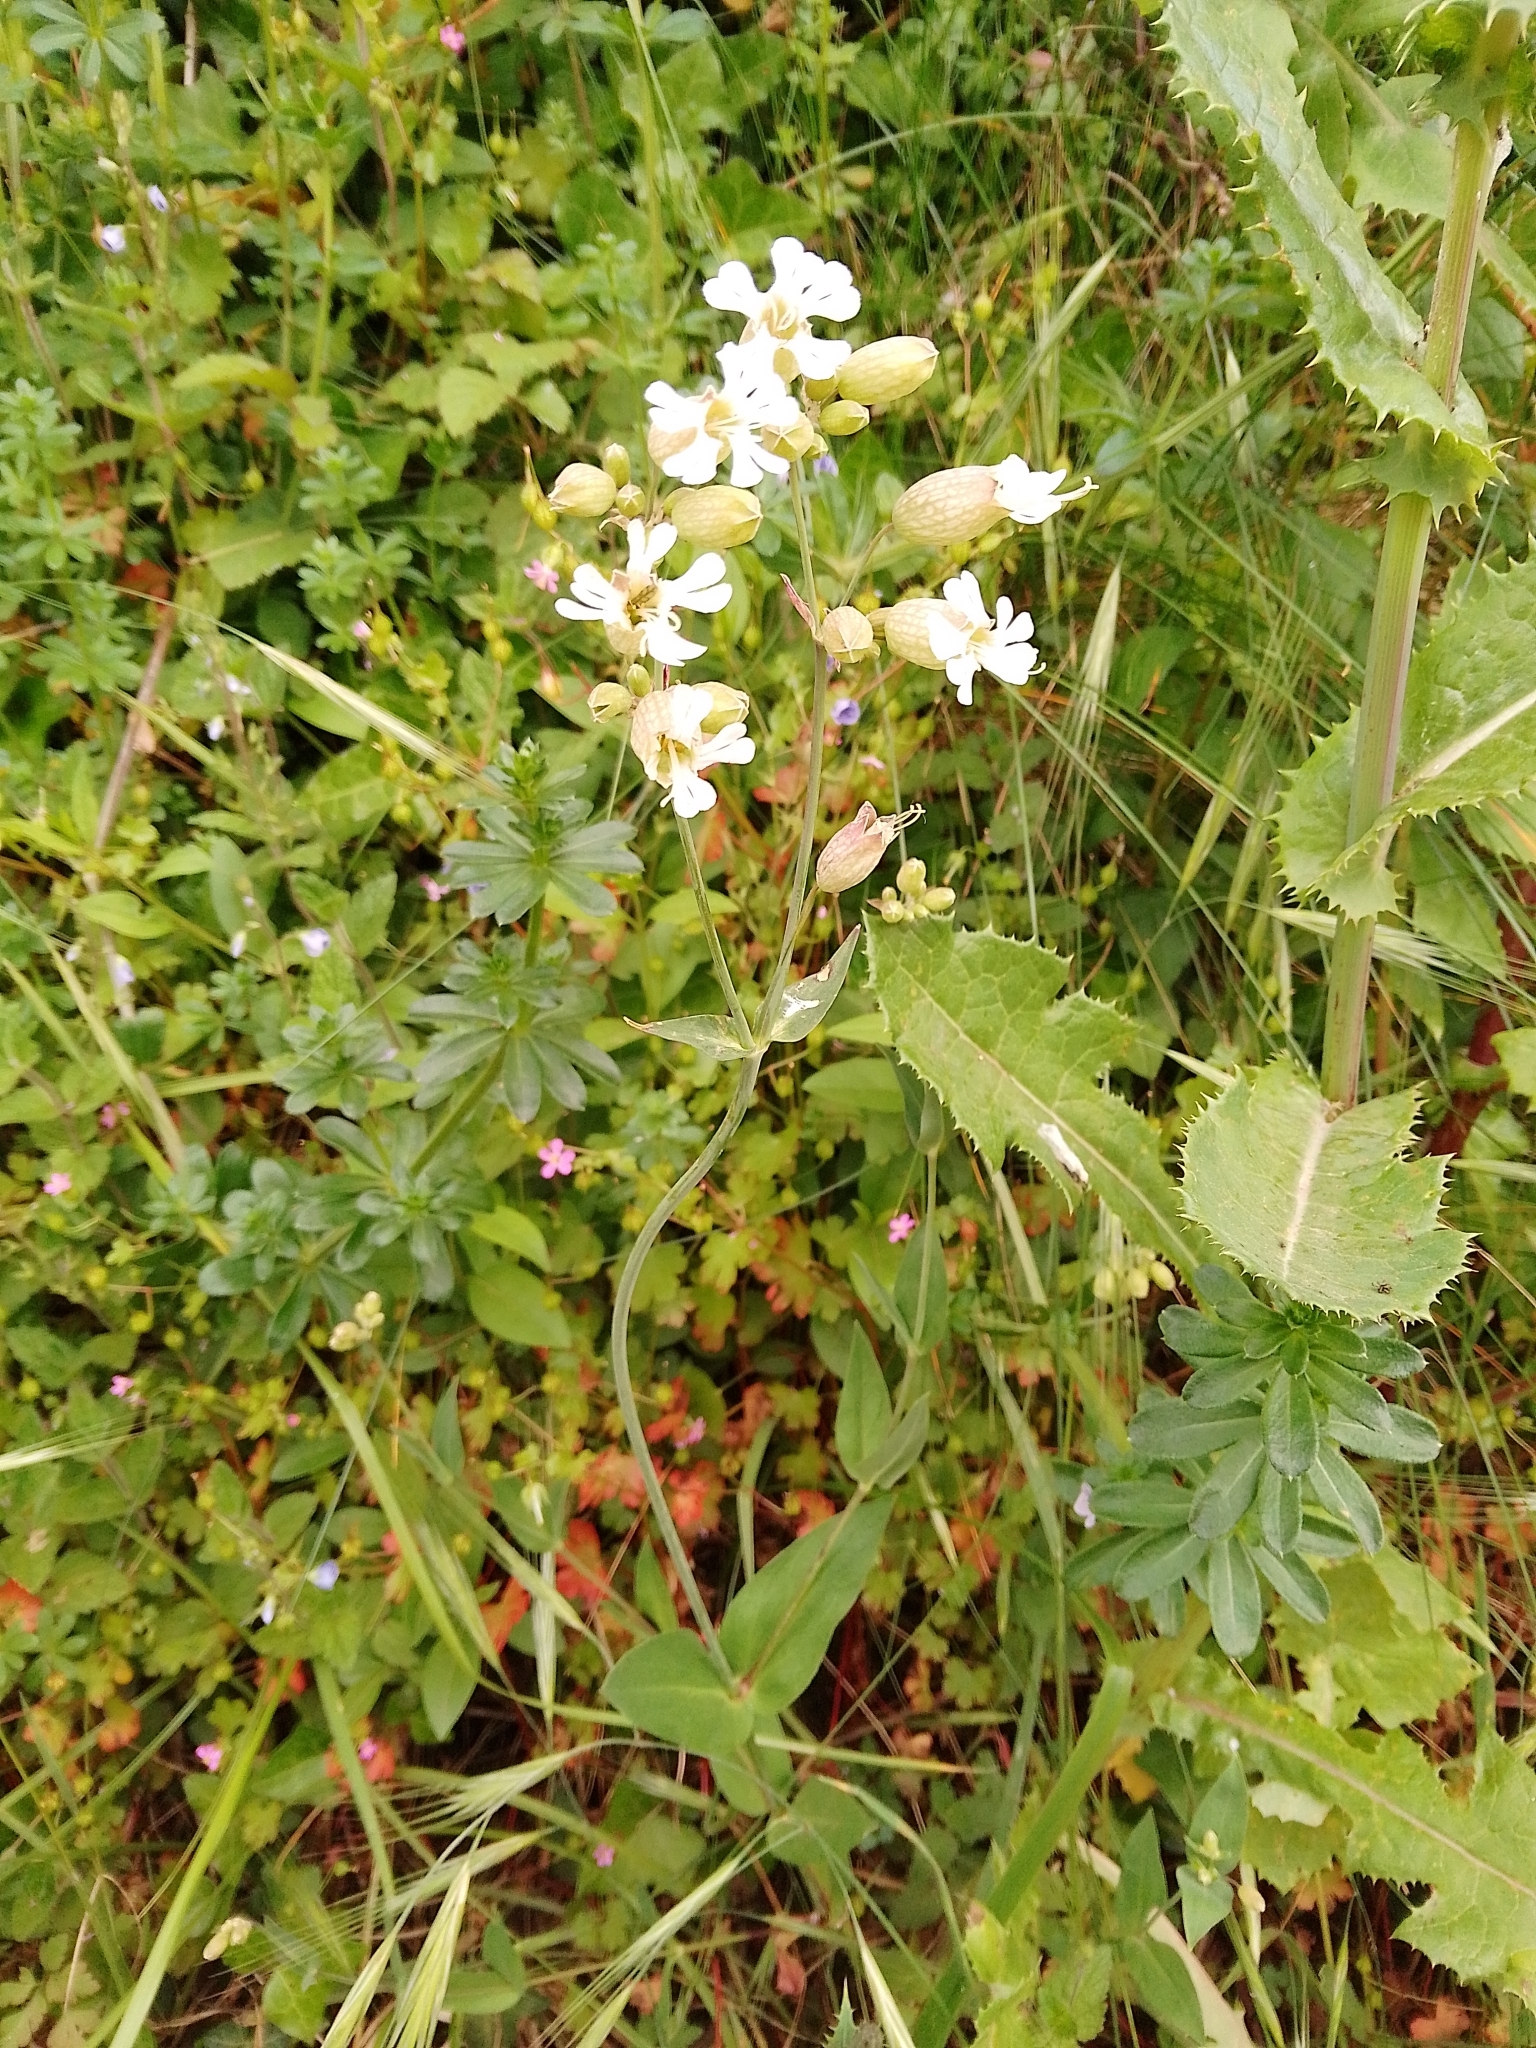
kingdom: Plantae
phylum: Tracheophyta
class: Magnoliopsida
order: Caryophyllales
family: Caryophyllaceae
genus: Silene
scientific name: Silene vulgaris
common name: Bladder campion
